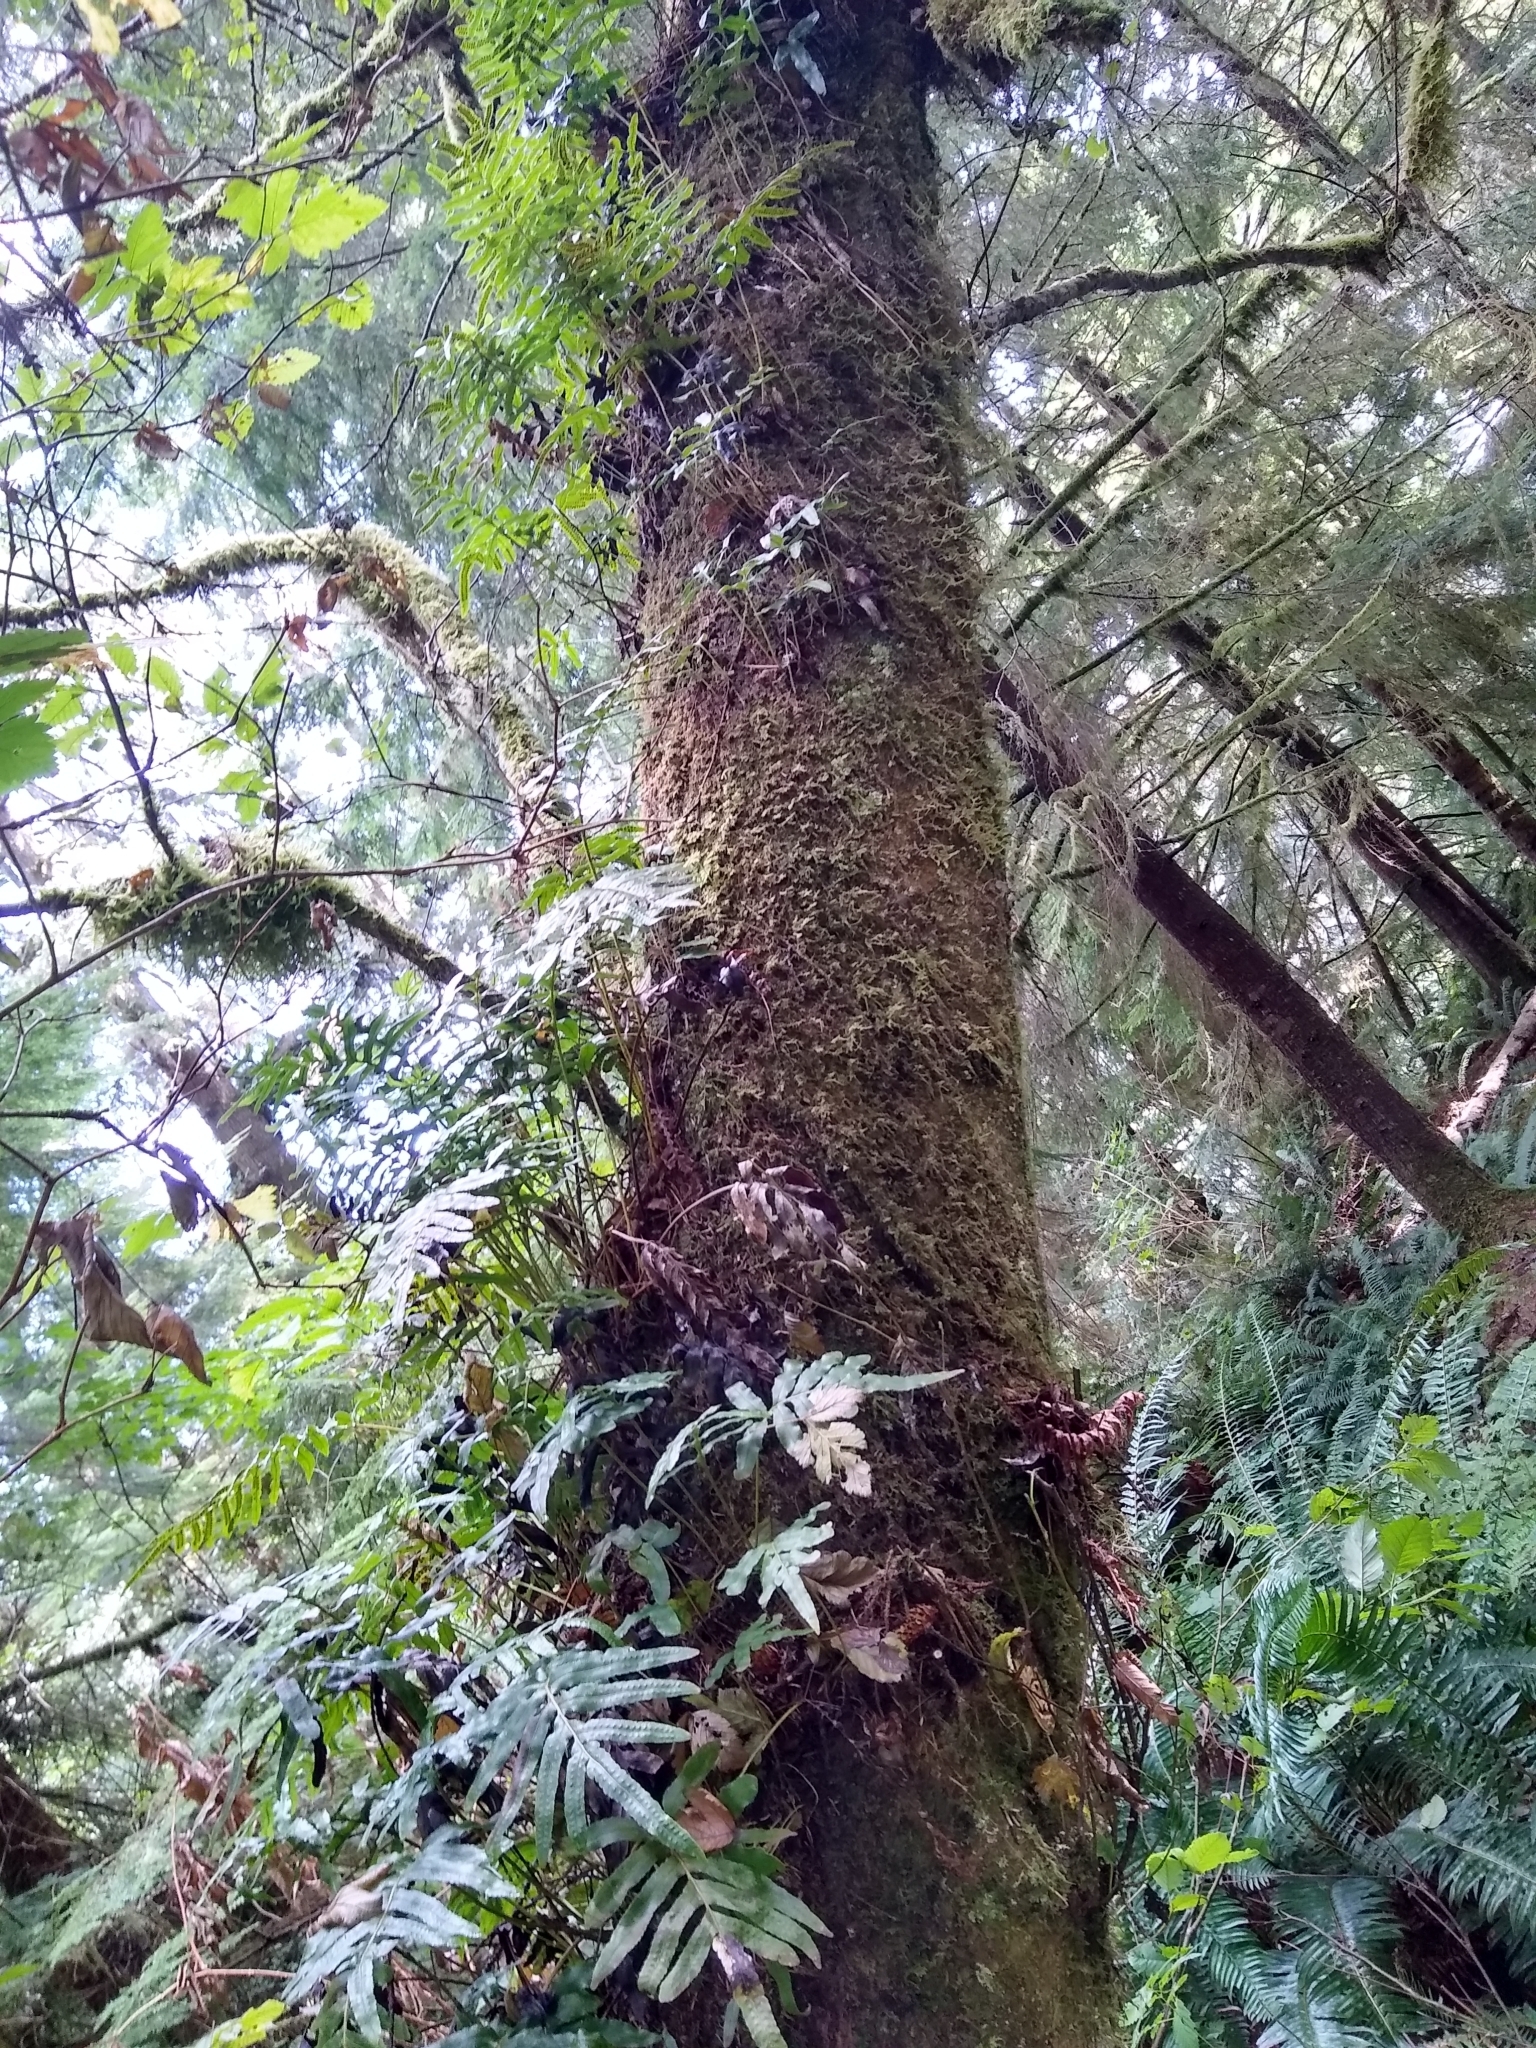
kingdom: Plantae
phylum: Tracheophyta
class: Polypodiopsida
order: Polypodiales
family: Polypodiaceae
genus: Polypodium
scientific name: Polypodium scouleri
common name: Scouler's polypody
